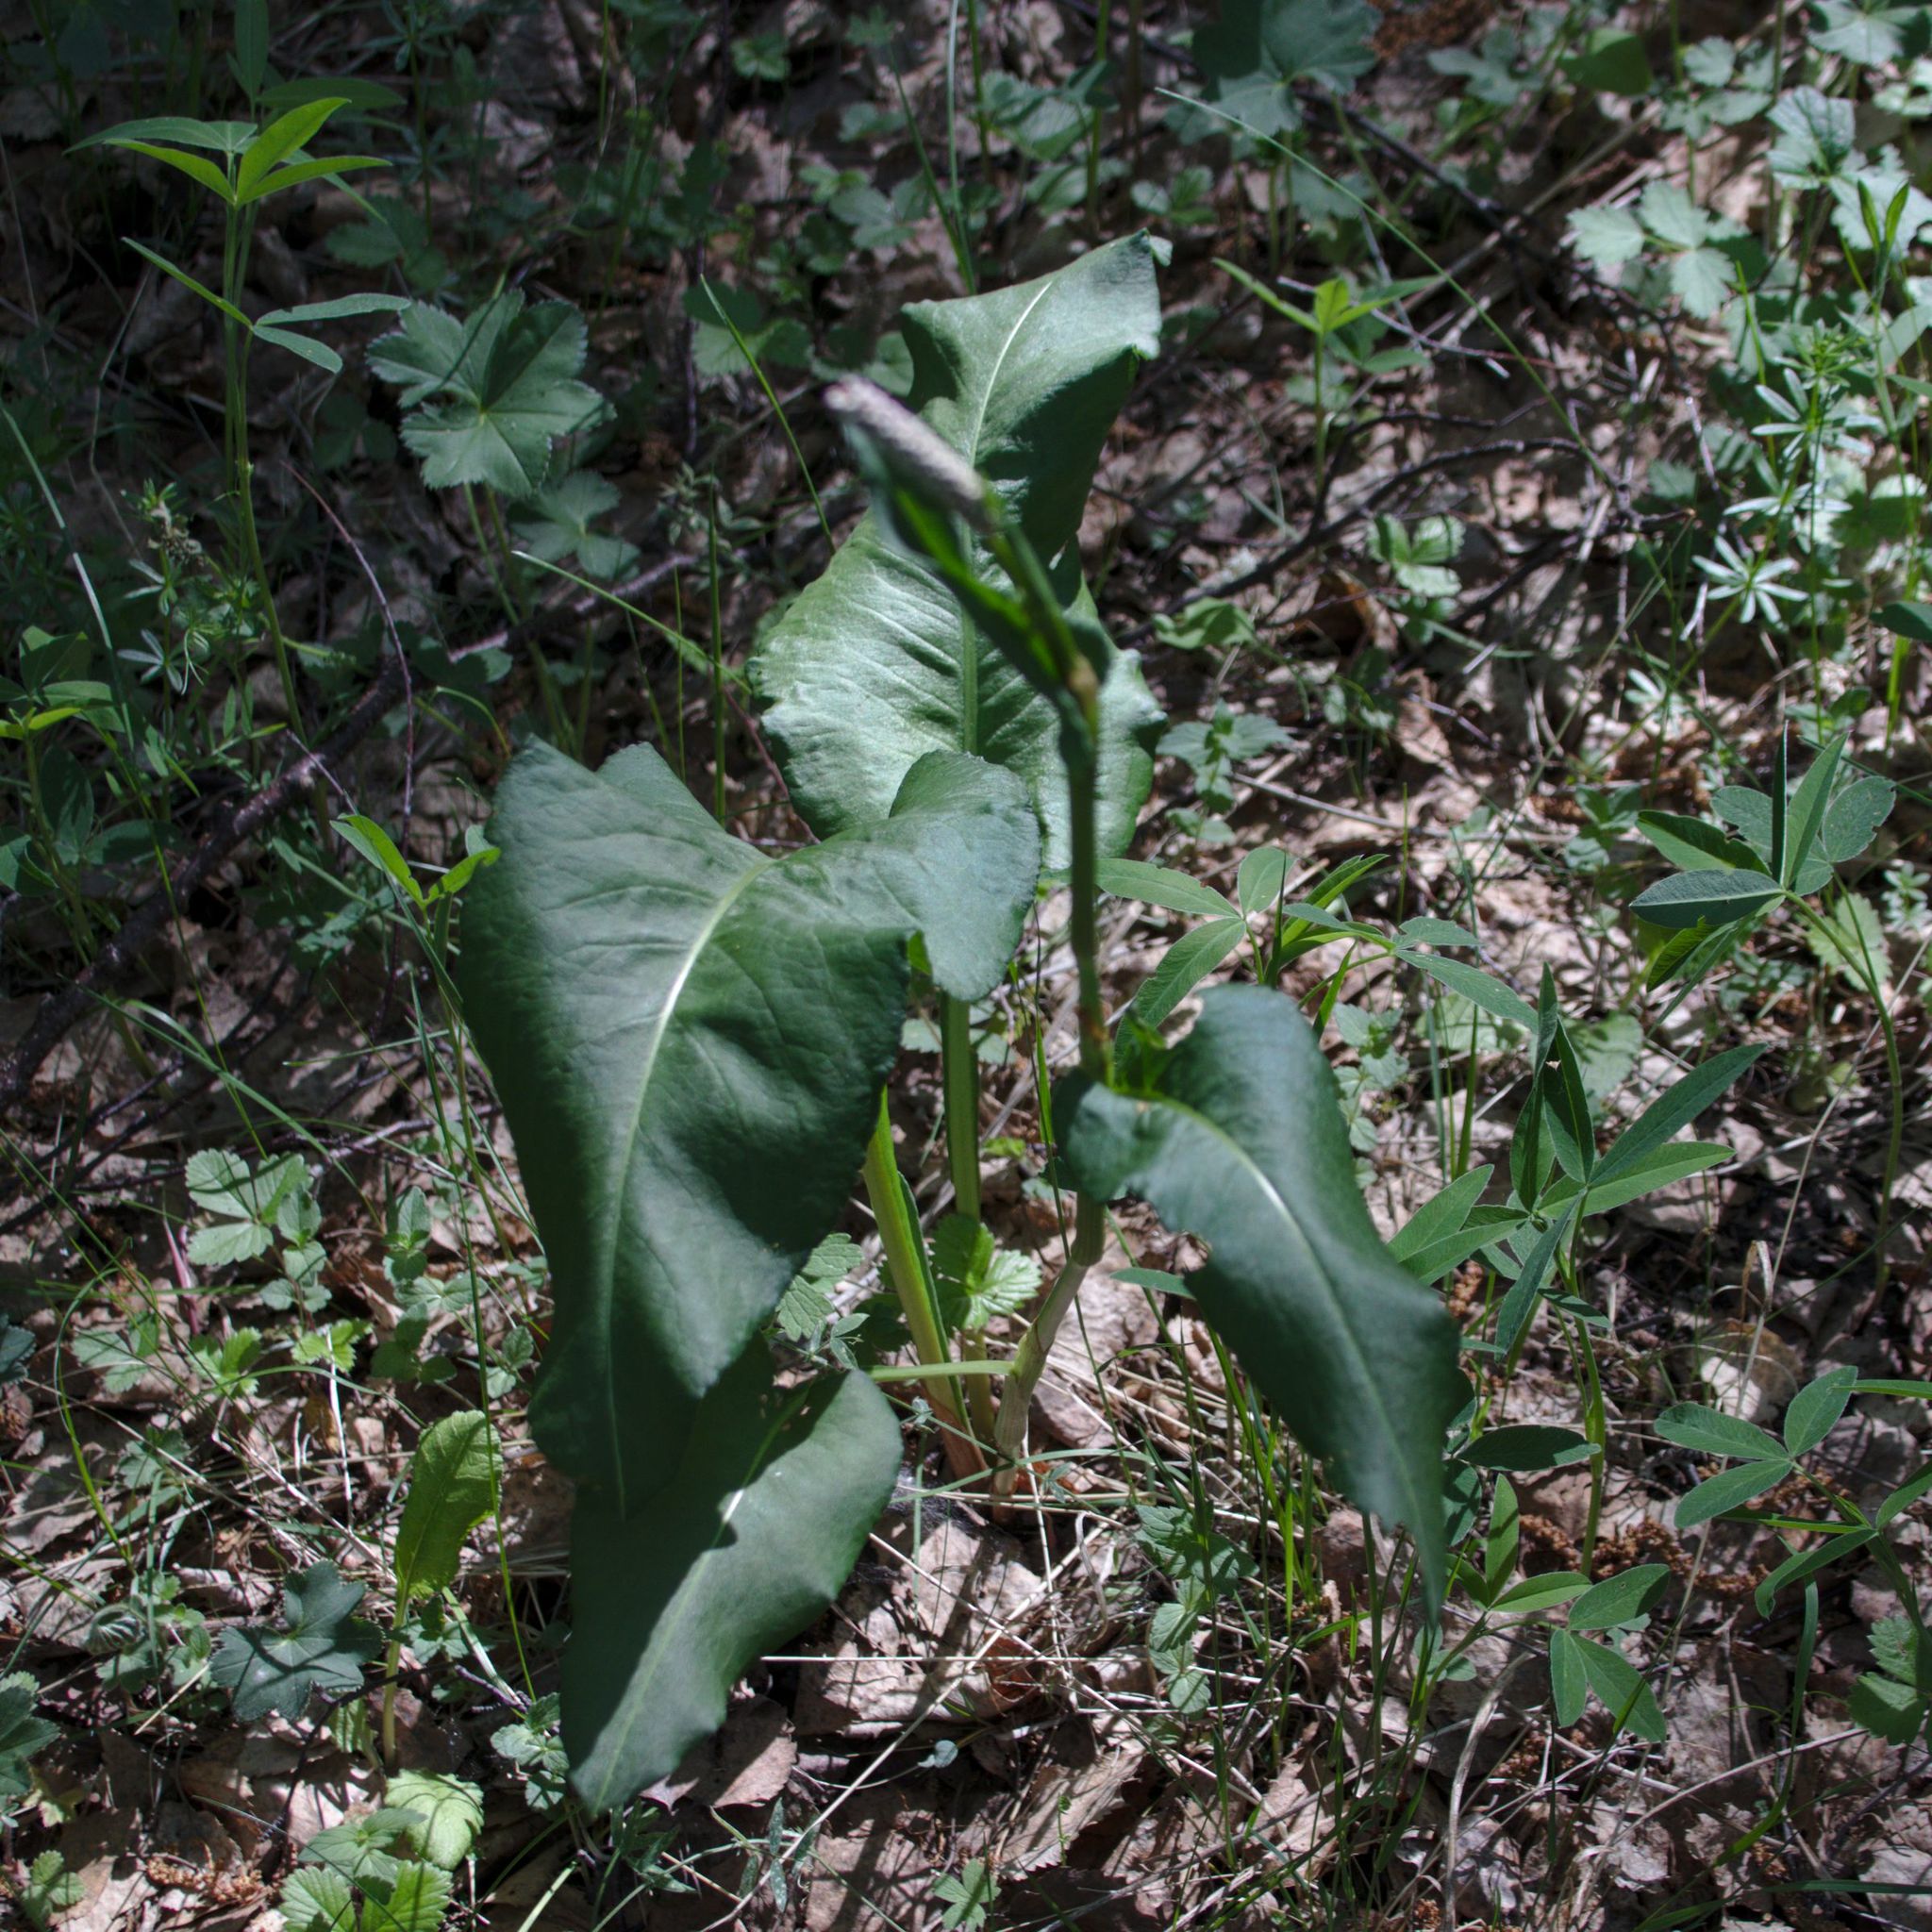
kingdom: Plantae
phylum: Tracheophyta
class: Magnoliopsida
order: Caryophyllales
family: Polygonaceae
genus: Bistorta
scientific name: Bistorta officinalis
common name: Common bistort
